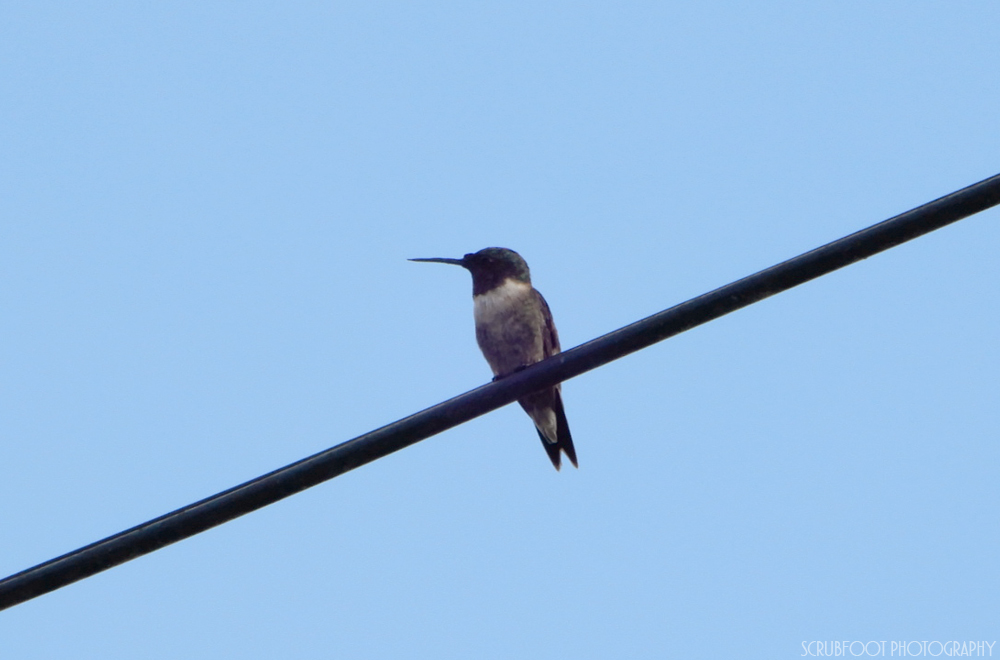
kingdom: Animalia
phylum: Chordata
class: Aves
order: Apodiformes
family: Trochilidae
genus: Archilochus
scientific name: Archilochus colubris
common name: Ruby-throated hummingbird
